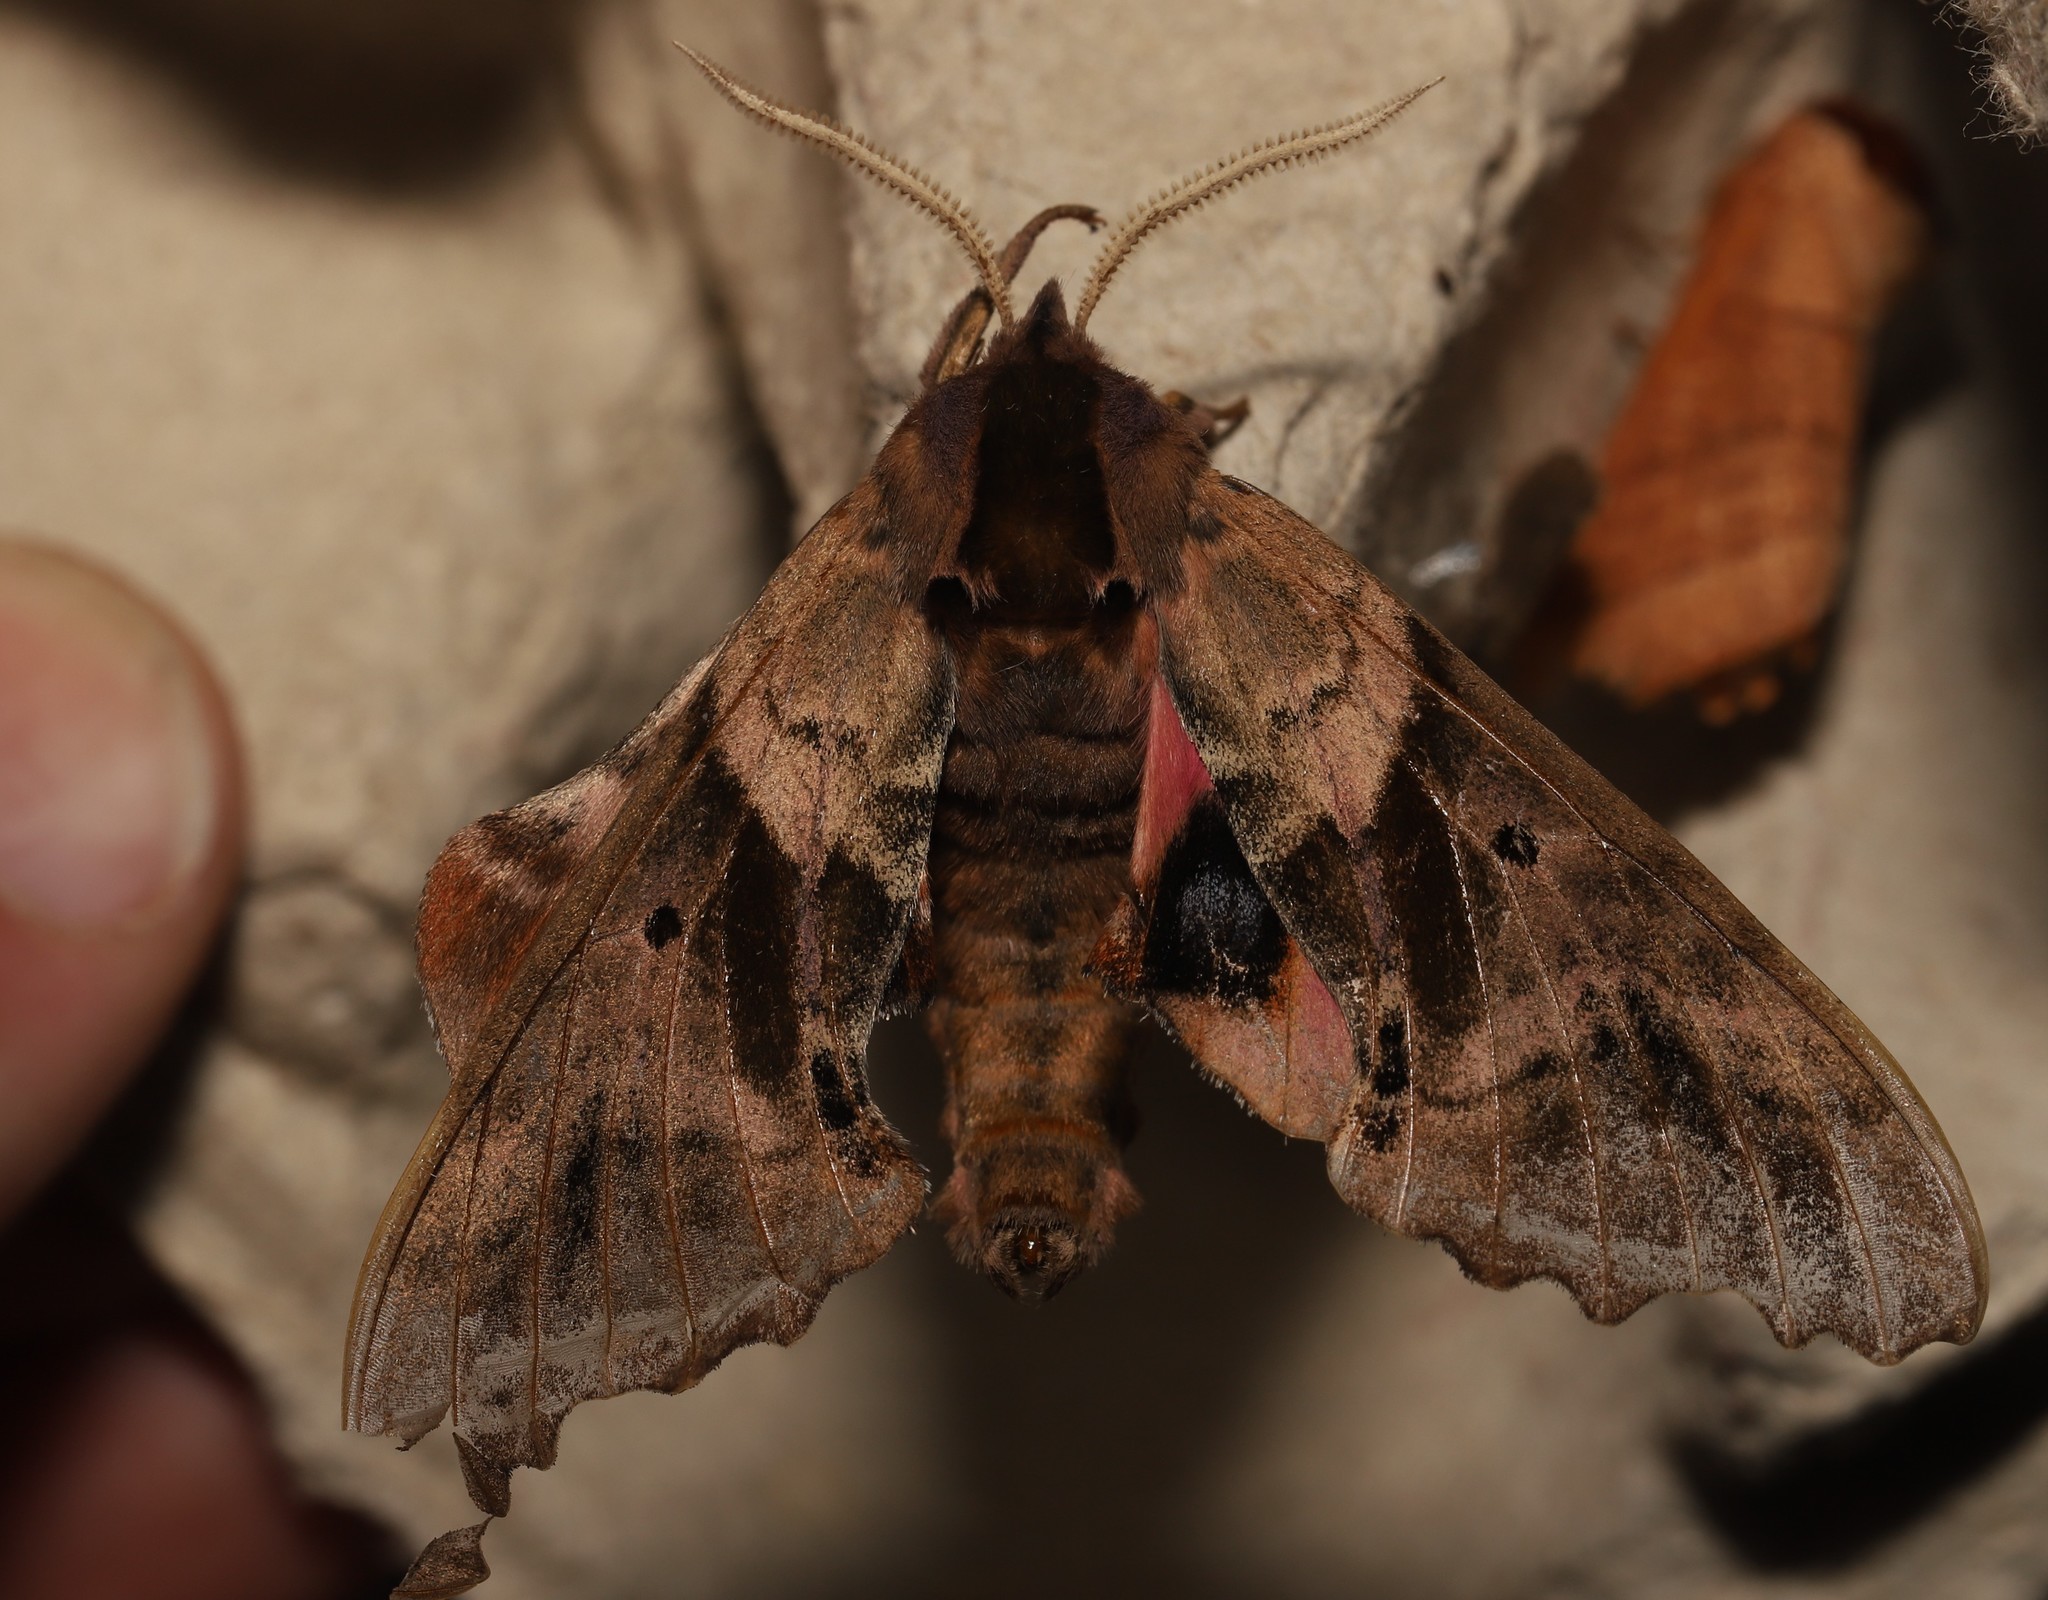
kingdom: Animalia
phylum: Arthropoda
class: Insecta
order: Lepidoptera
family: Sphingidae
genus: Paonias
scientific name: Paonias excaecata
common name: Blind-eyed sphinx
